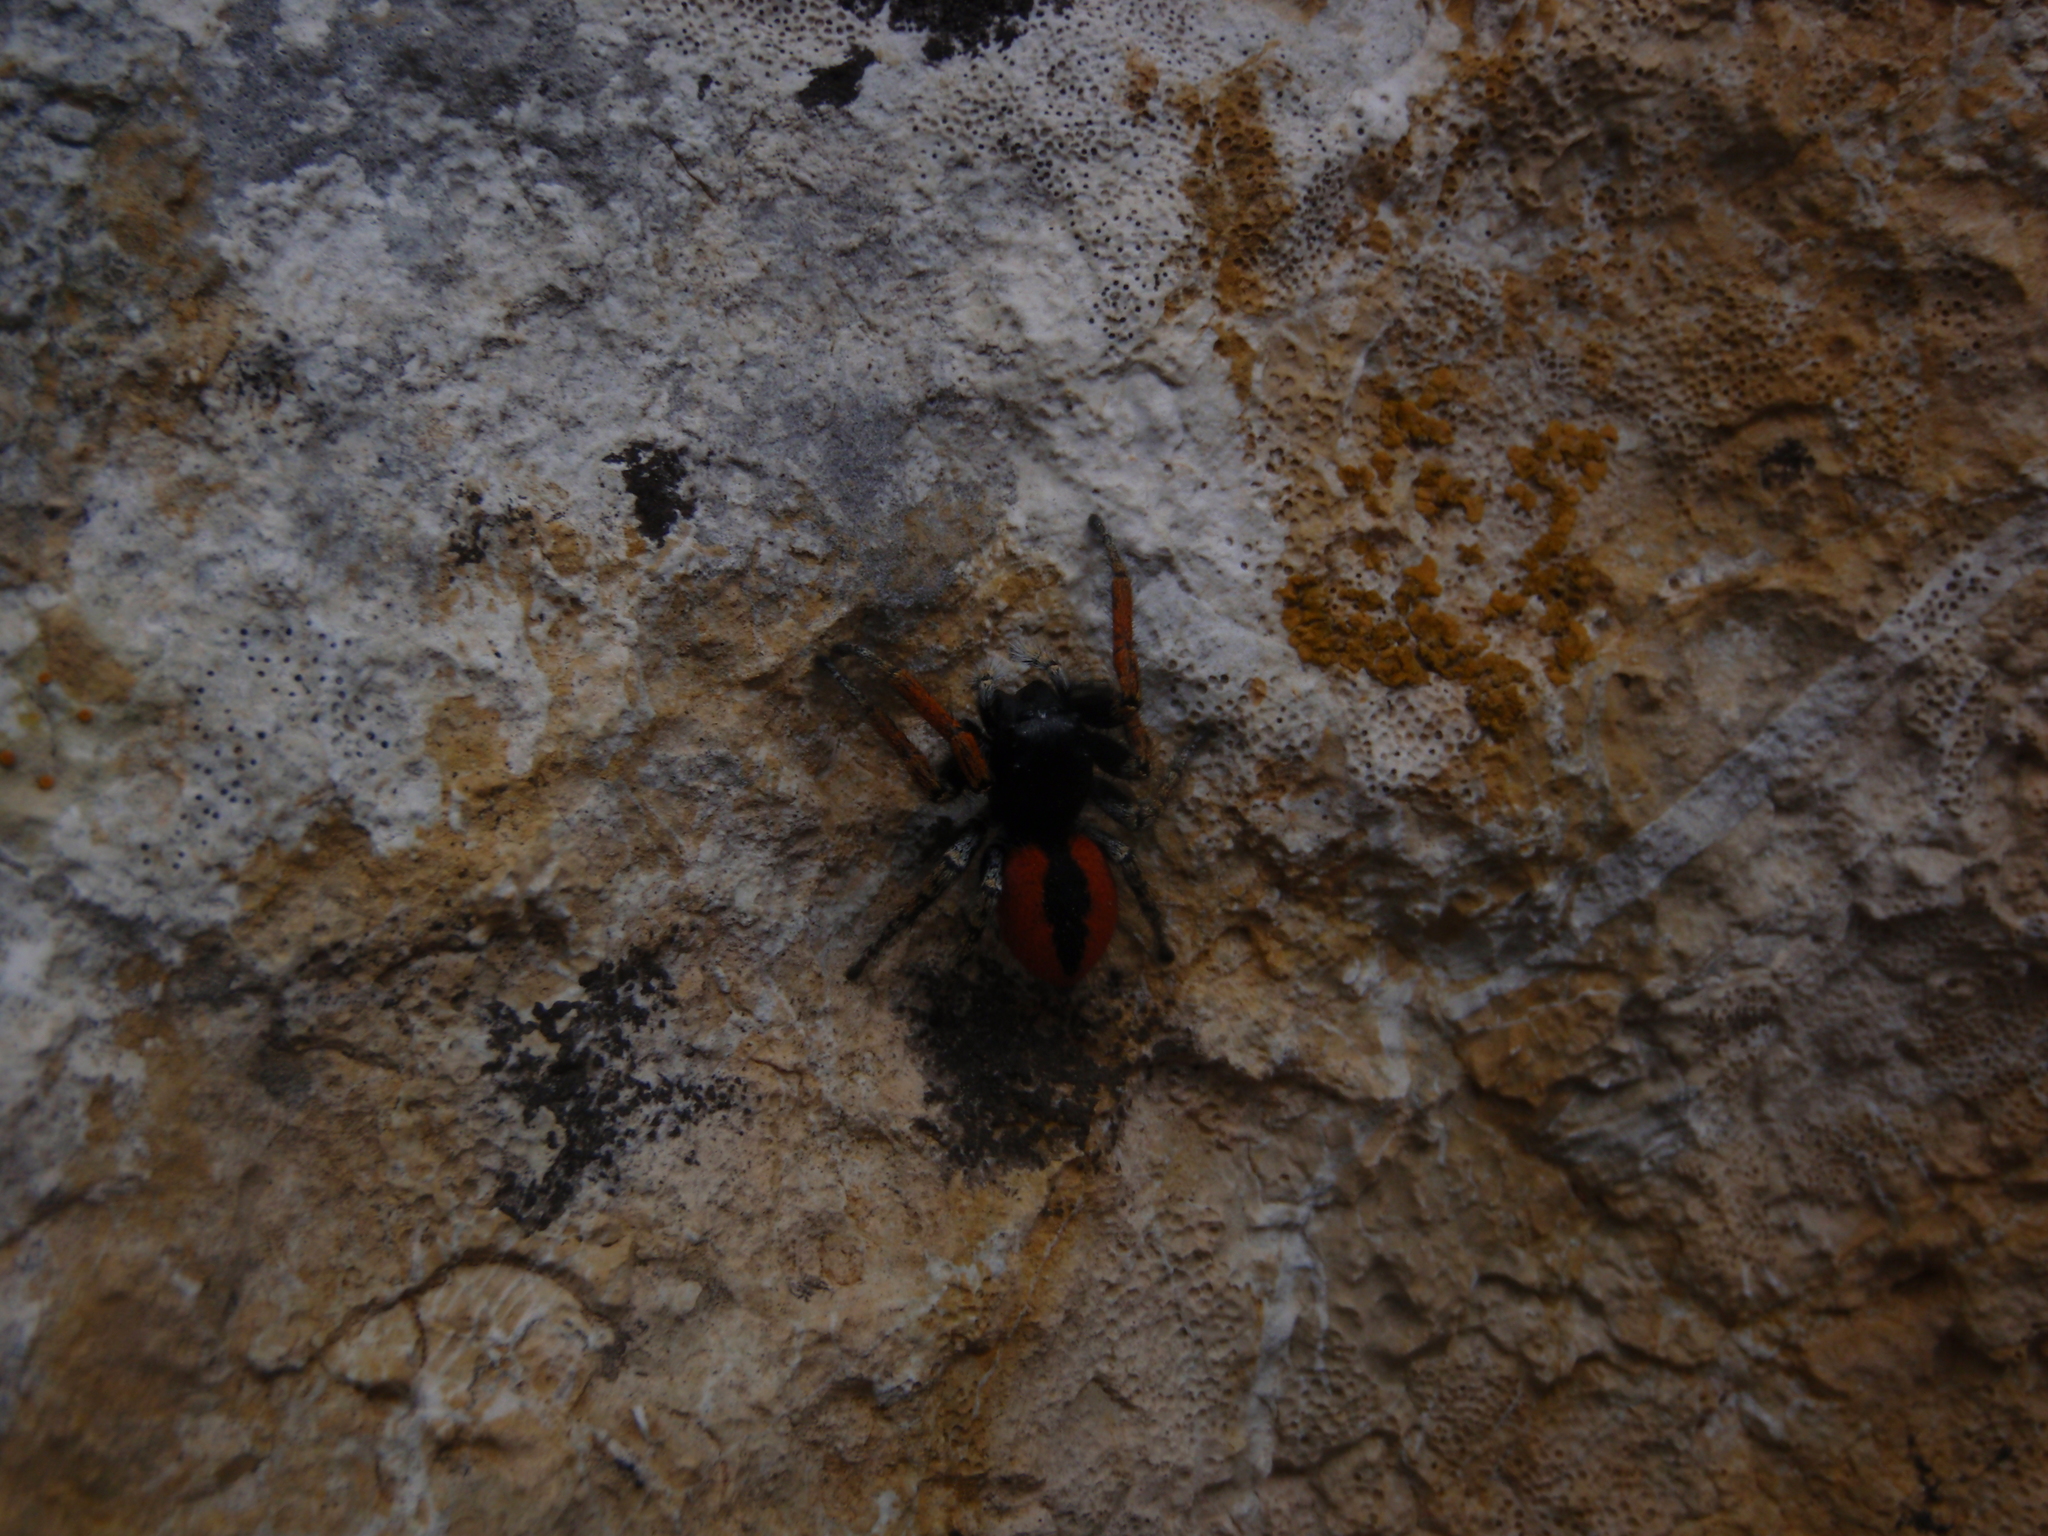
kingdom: Animalia
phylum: Arthropoda
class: Arachnida
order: Araneae
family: Salticidae
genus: Philaeus
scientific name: Philaeus chrysops
